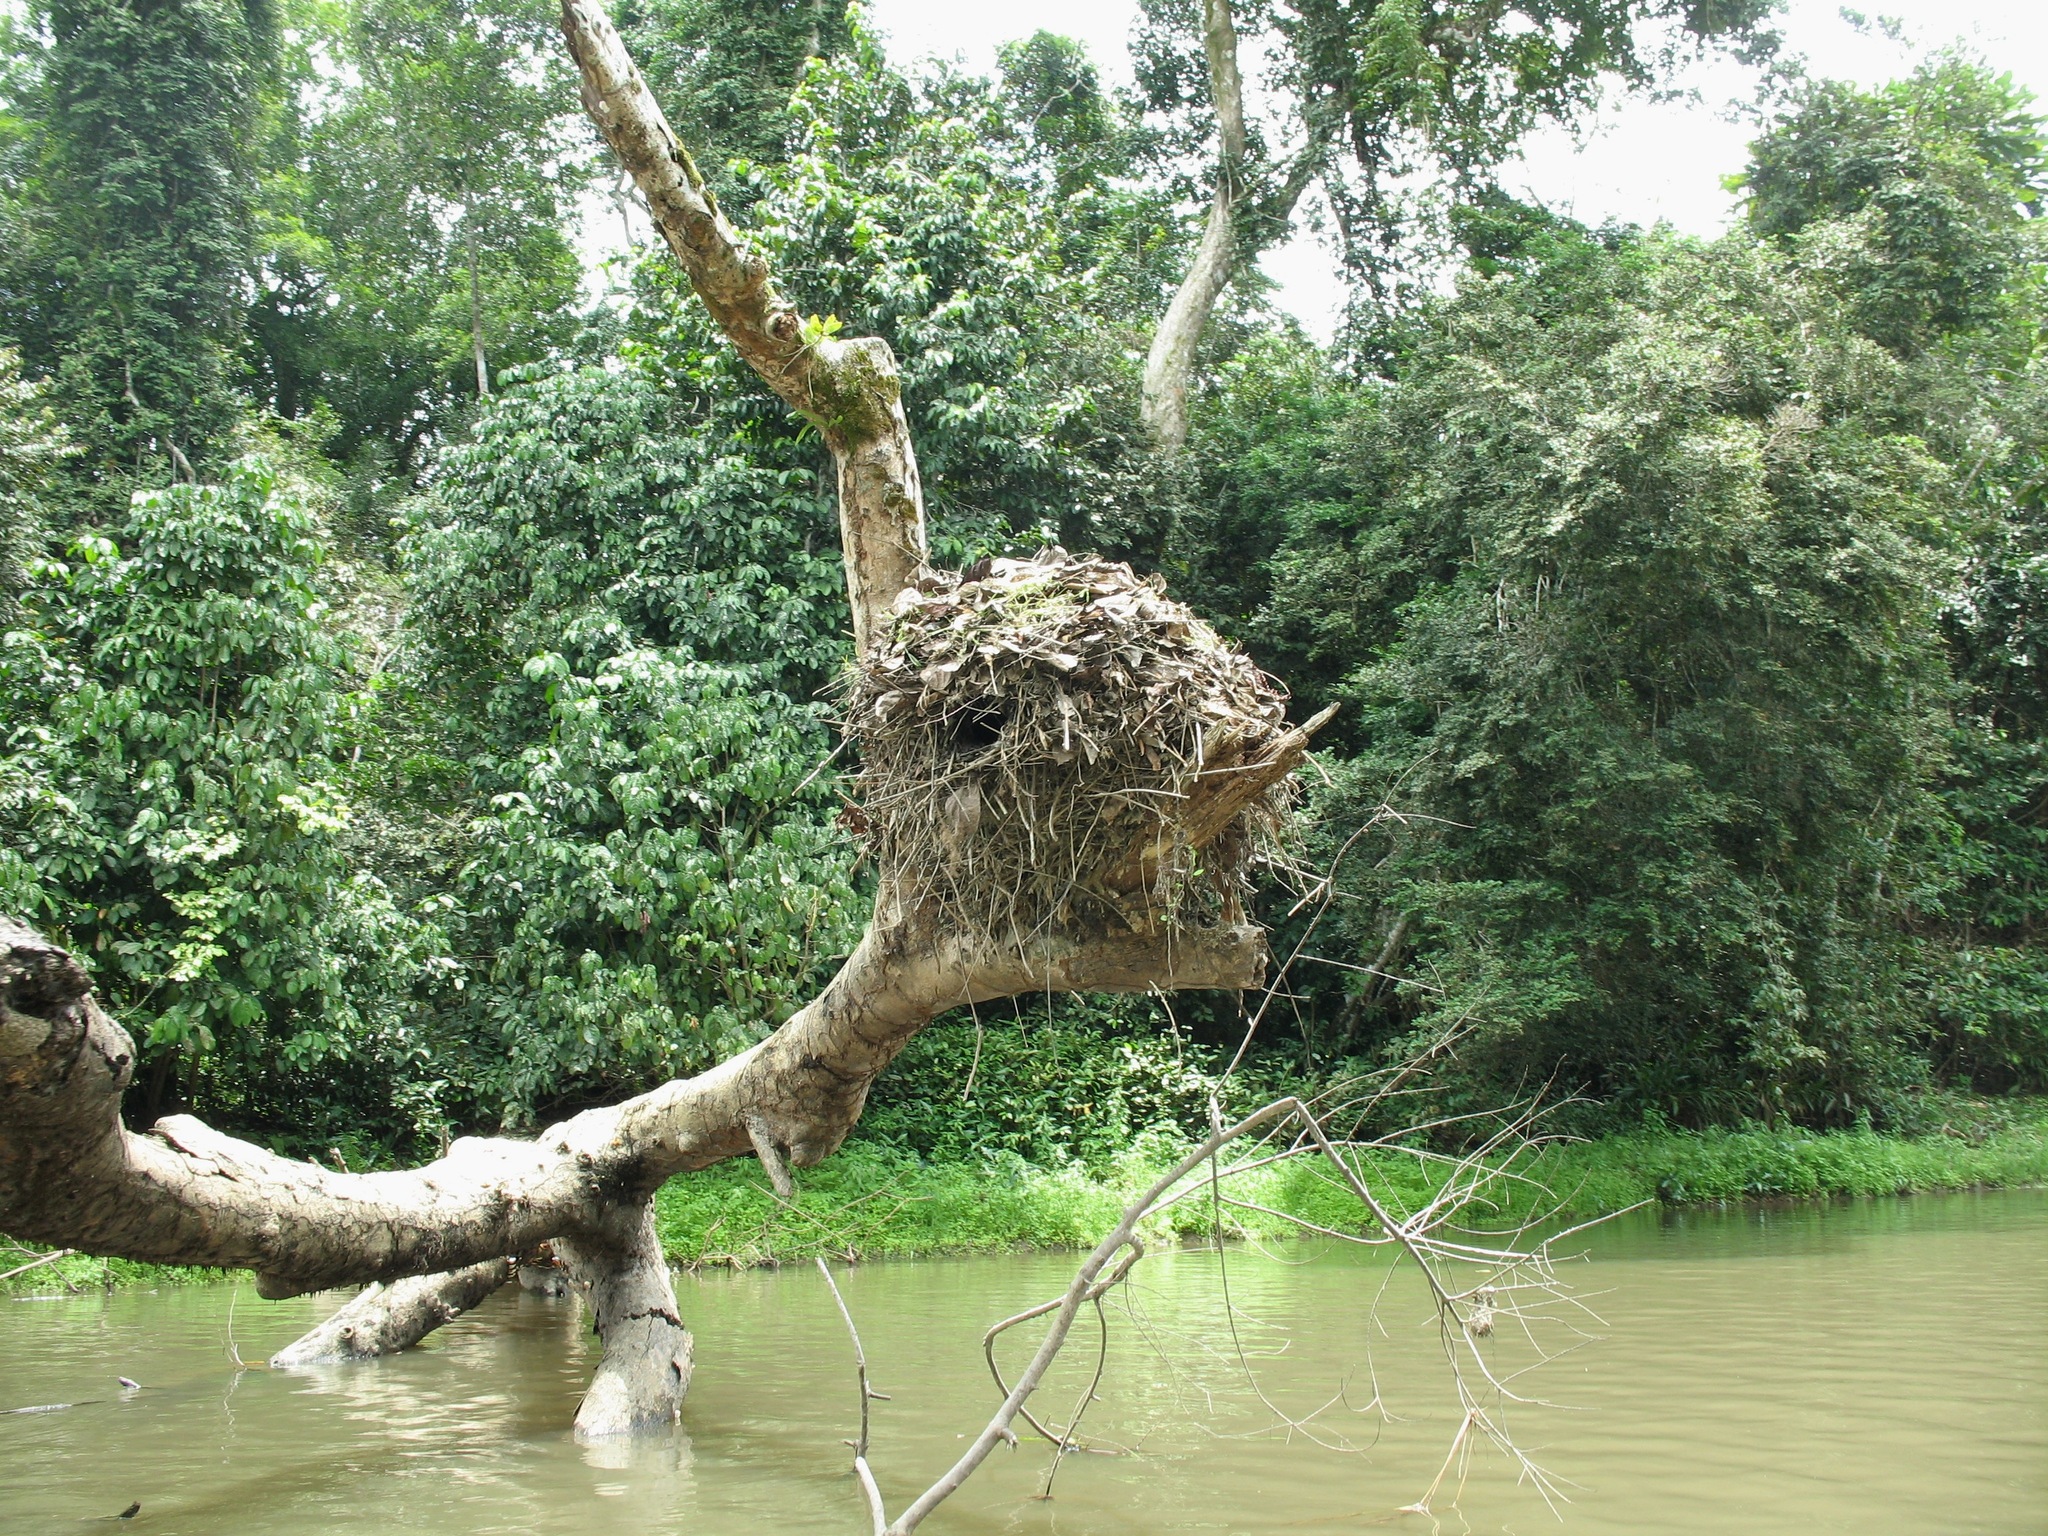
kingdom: Animalia
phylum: Chordata
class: Aves
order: Pelecaniformes
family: Scopidae
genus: Scopus
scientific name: Scopus umbretta
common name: Hamerkop
